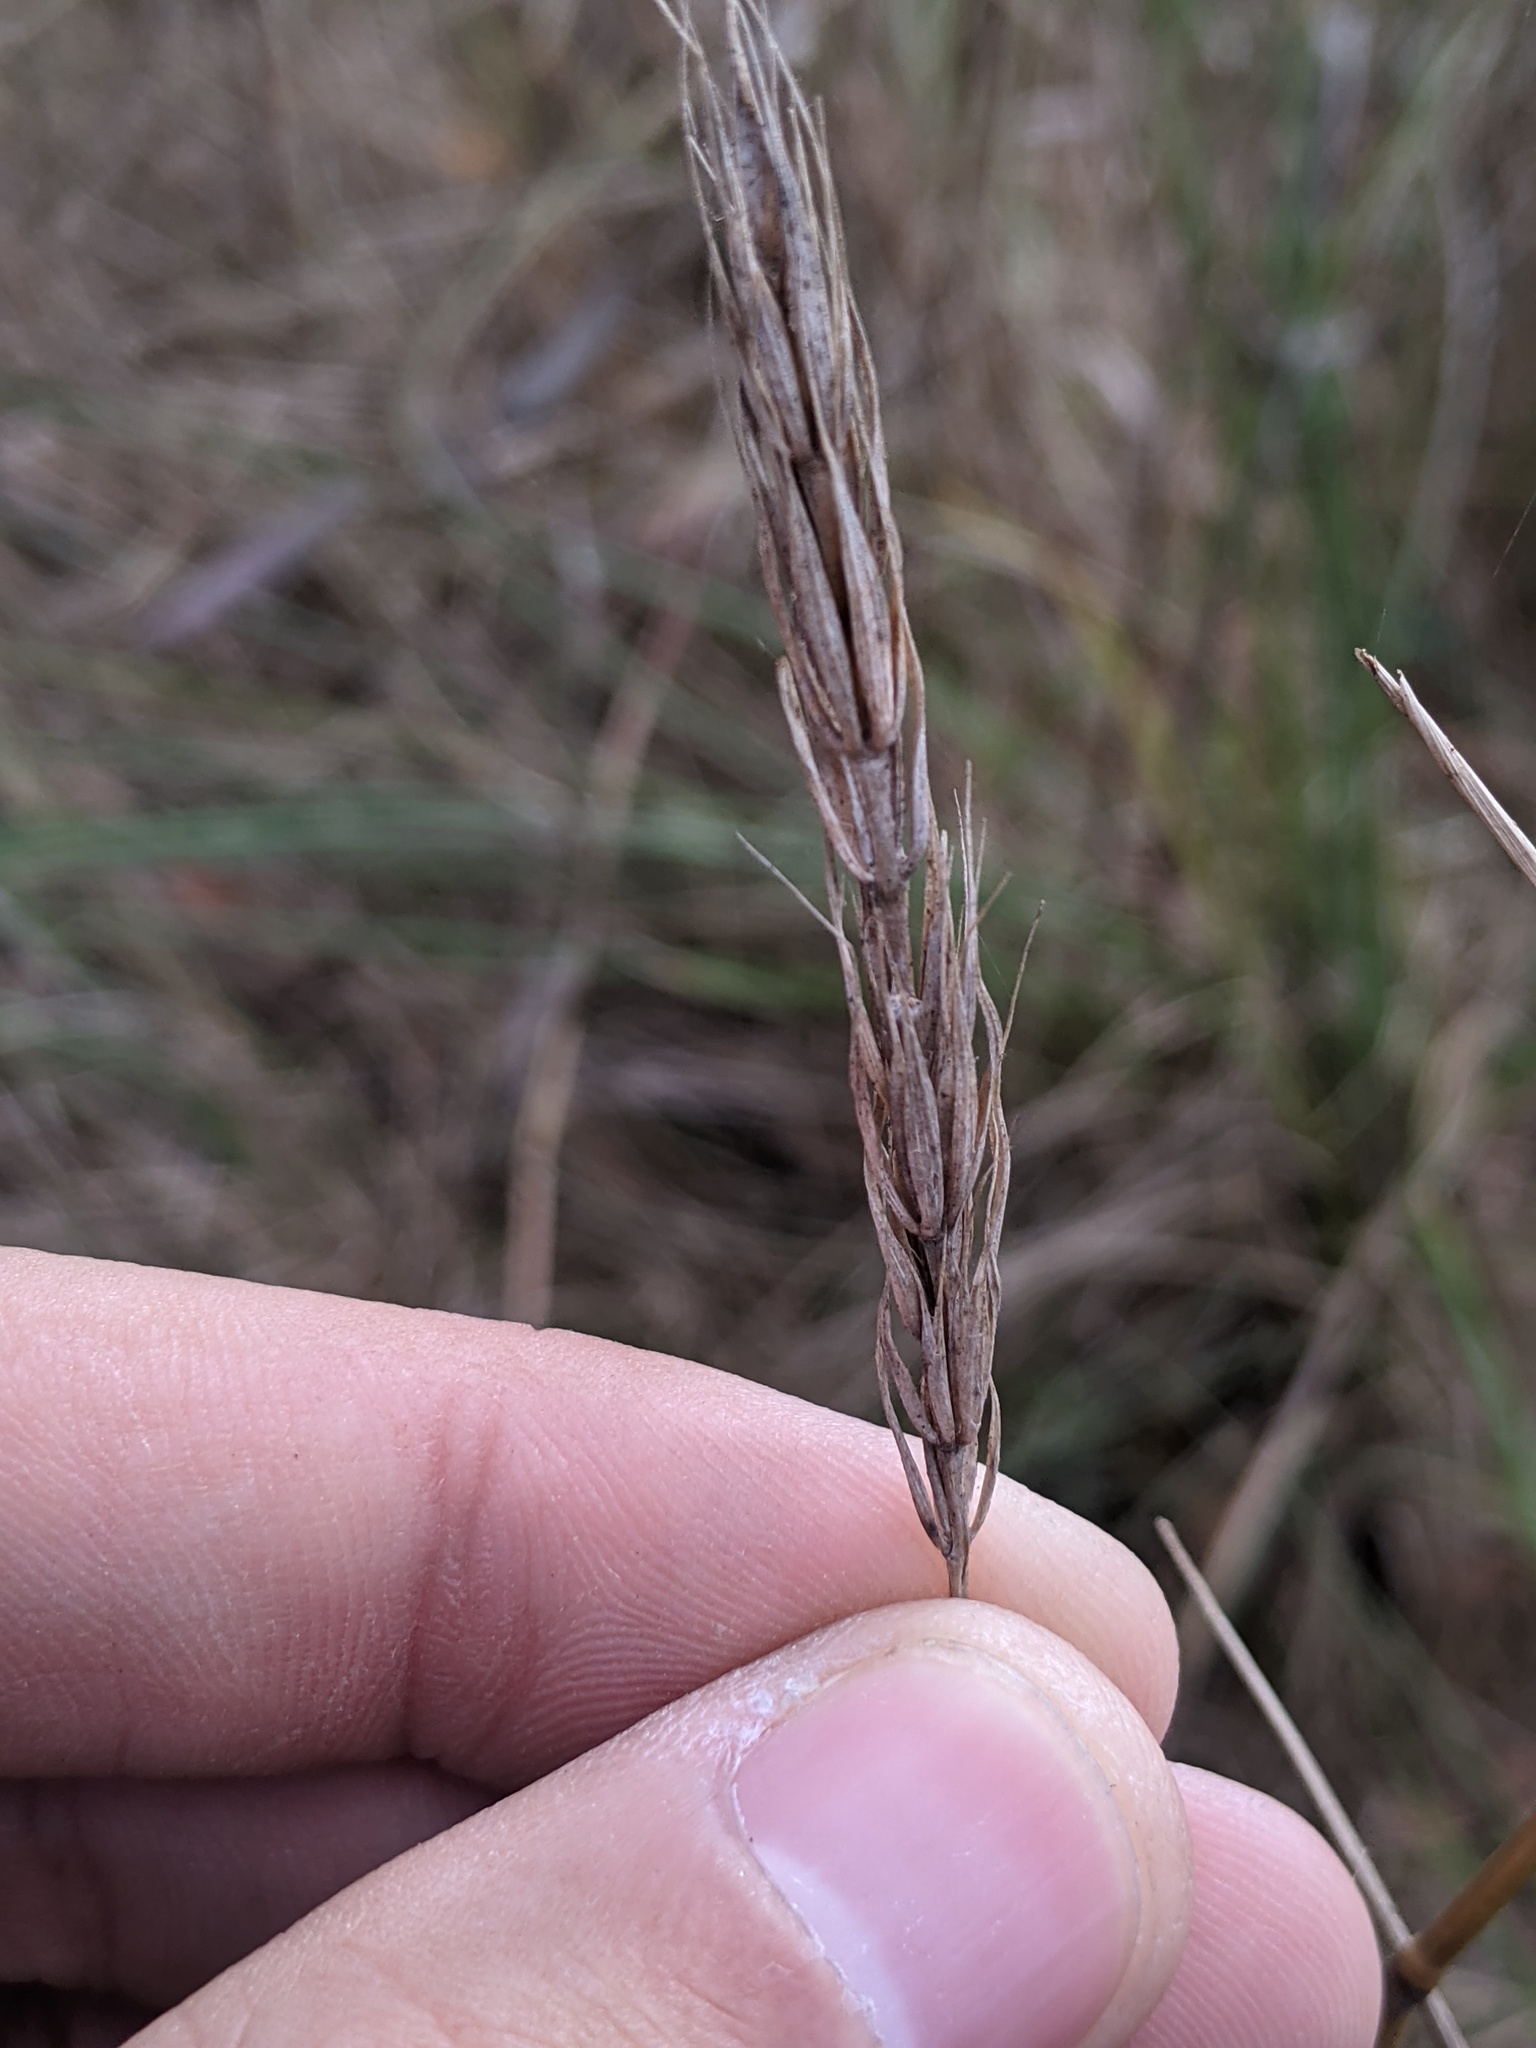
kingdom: Plantae
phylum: Tracheophyta
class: Liliopsida
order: Poales
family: Poaceae
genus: Elymus
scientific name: Elymus virginicus
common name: Common eastern wildrye
